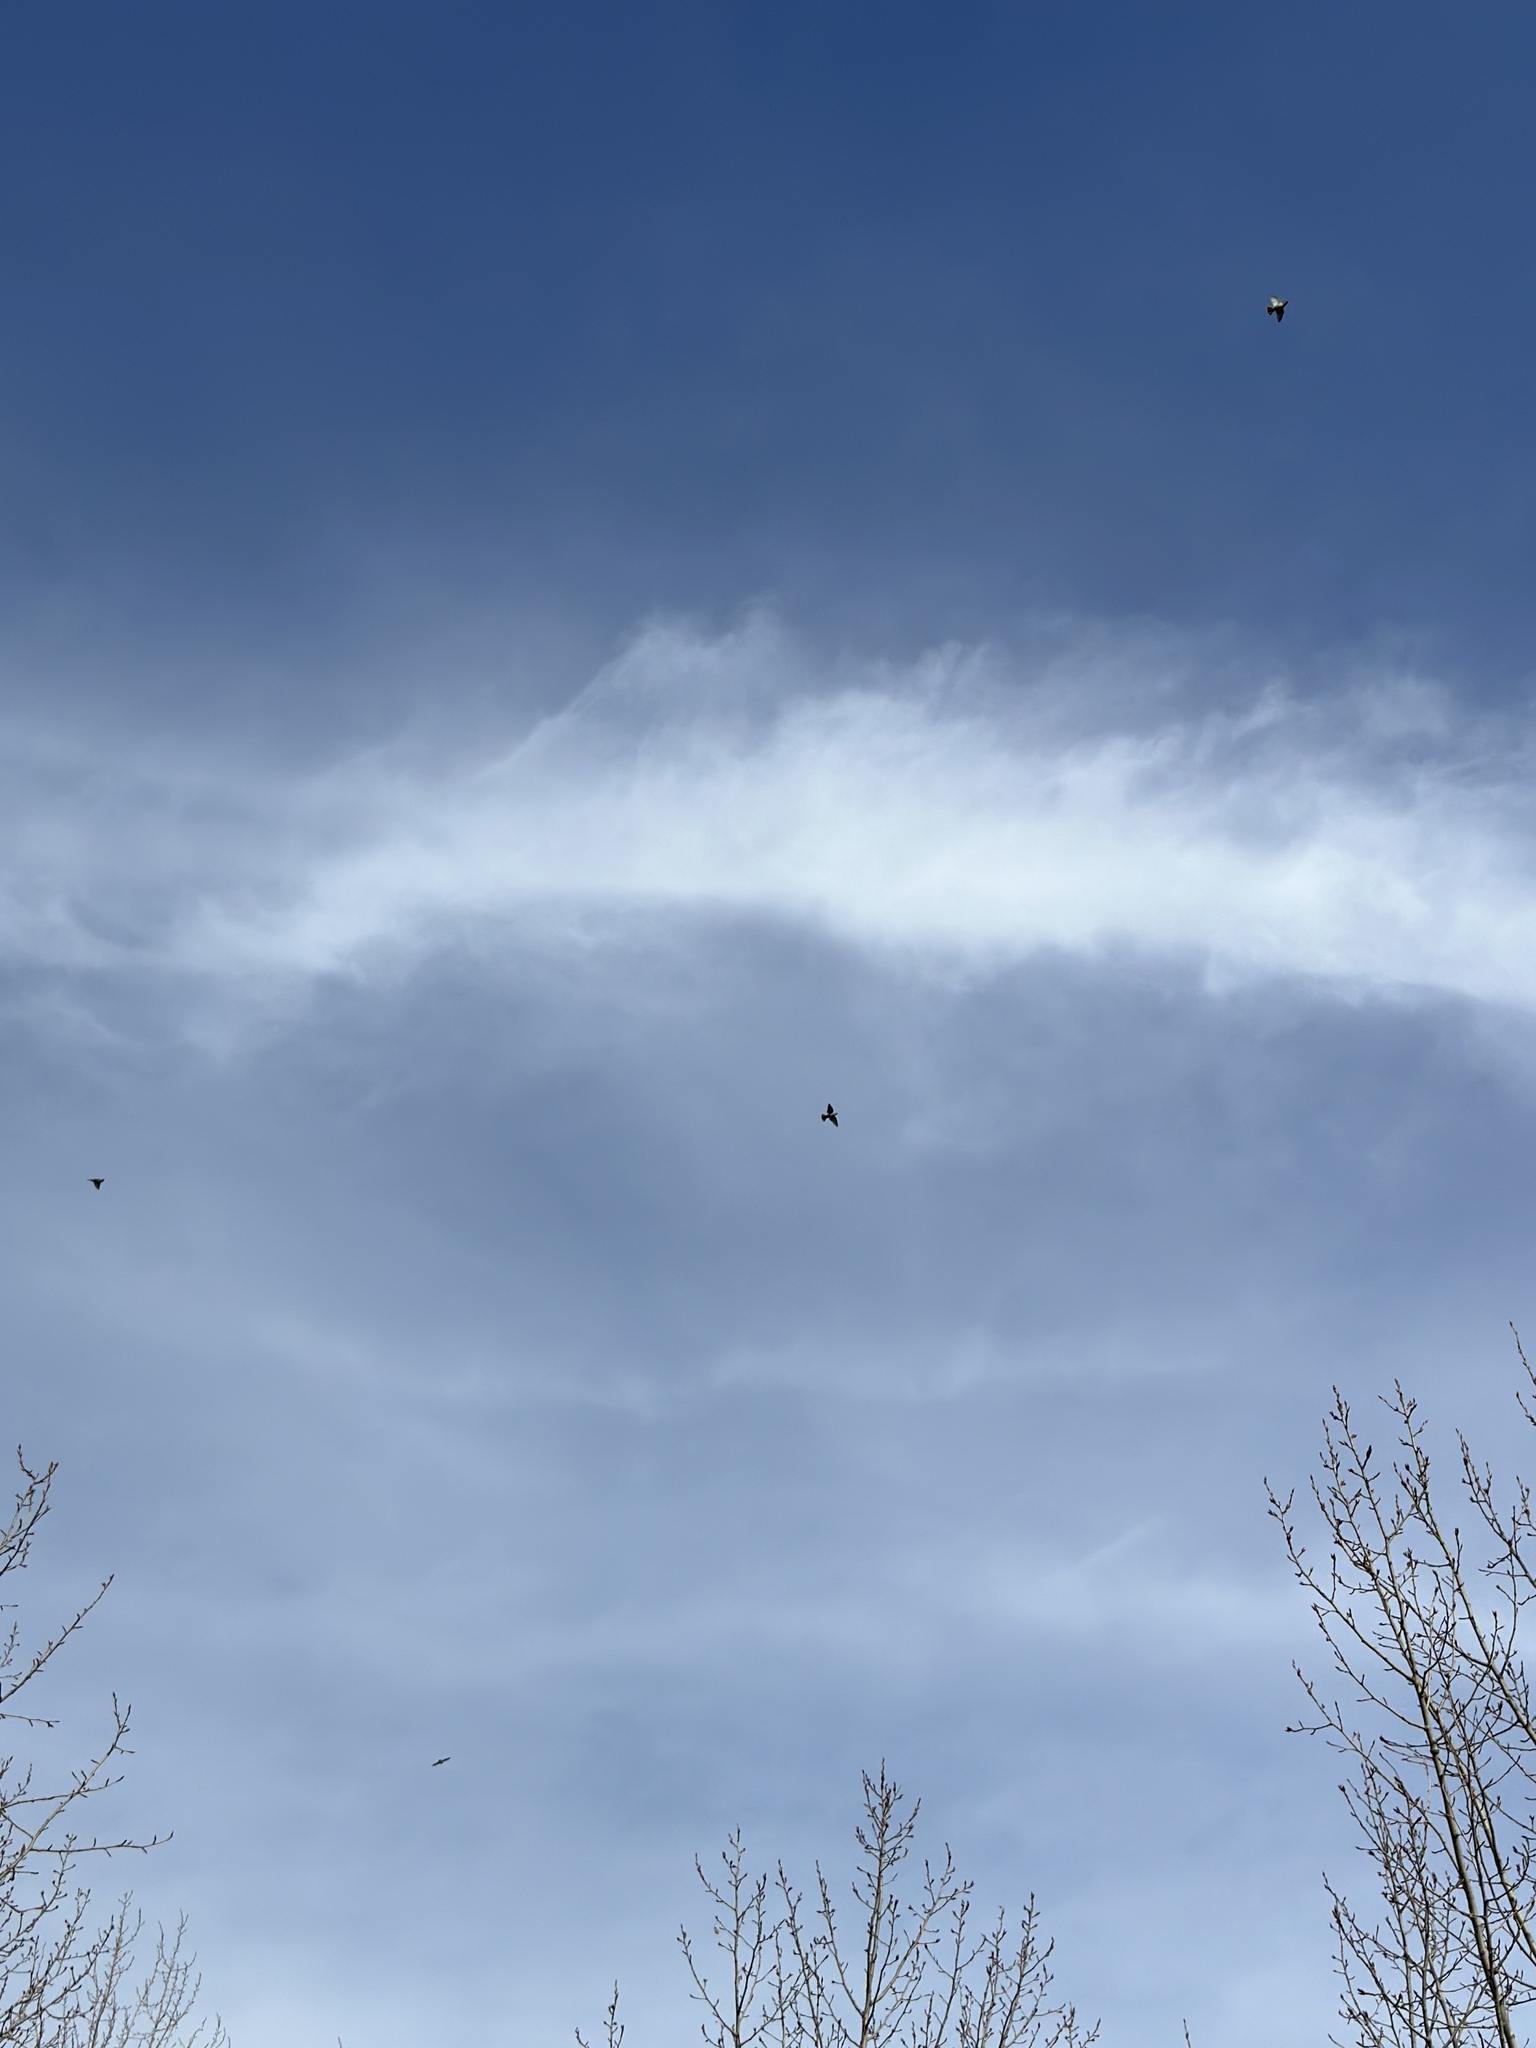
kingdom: Animalia
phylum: Chordata
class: Aves
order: Passeriformes
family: Bombycillidae
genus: Bombycilla
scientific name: Bombycilla garrulus
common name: Bohemian waxwing
